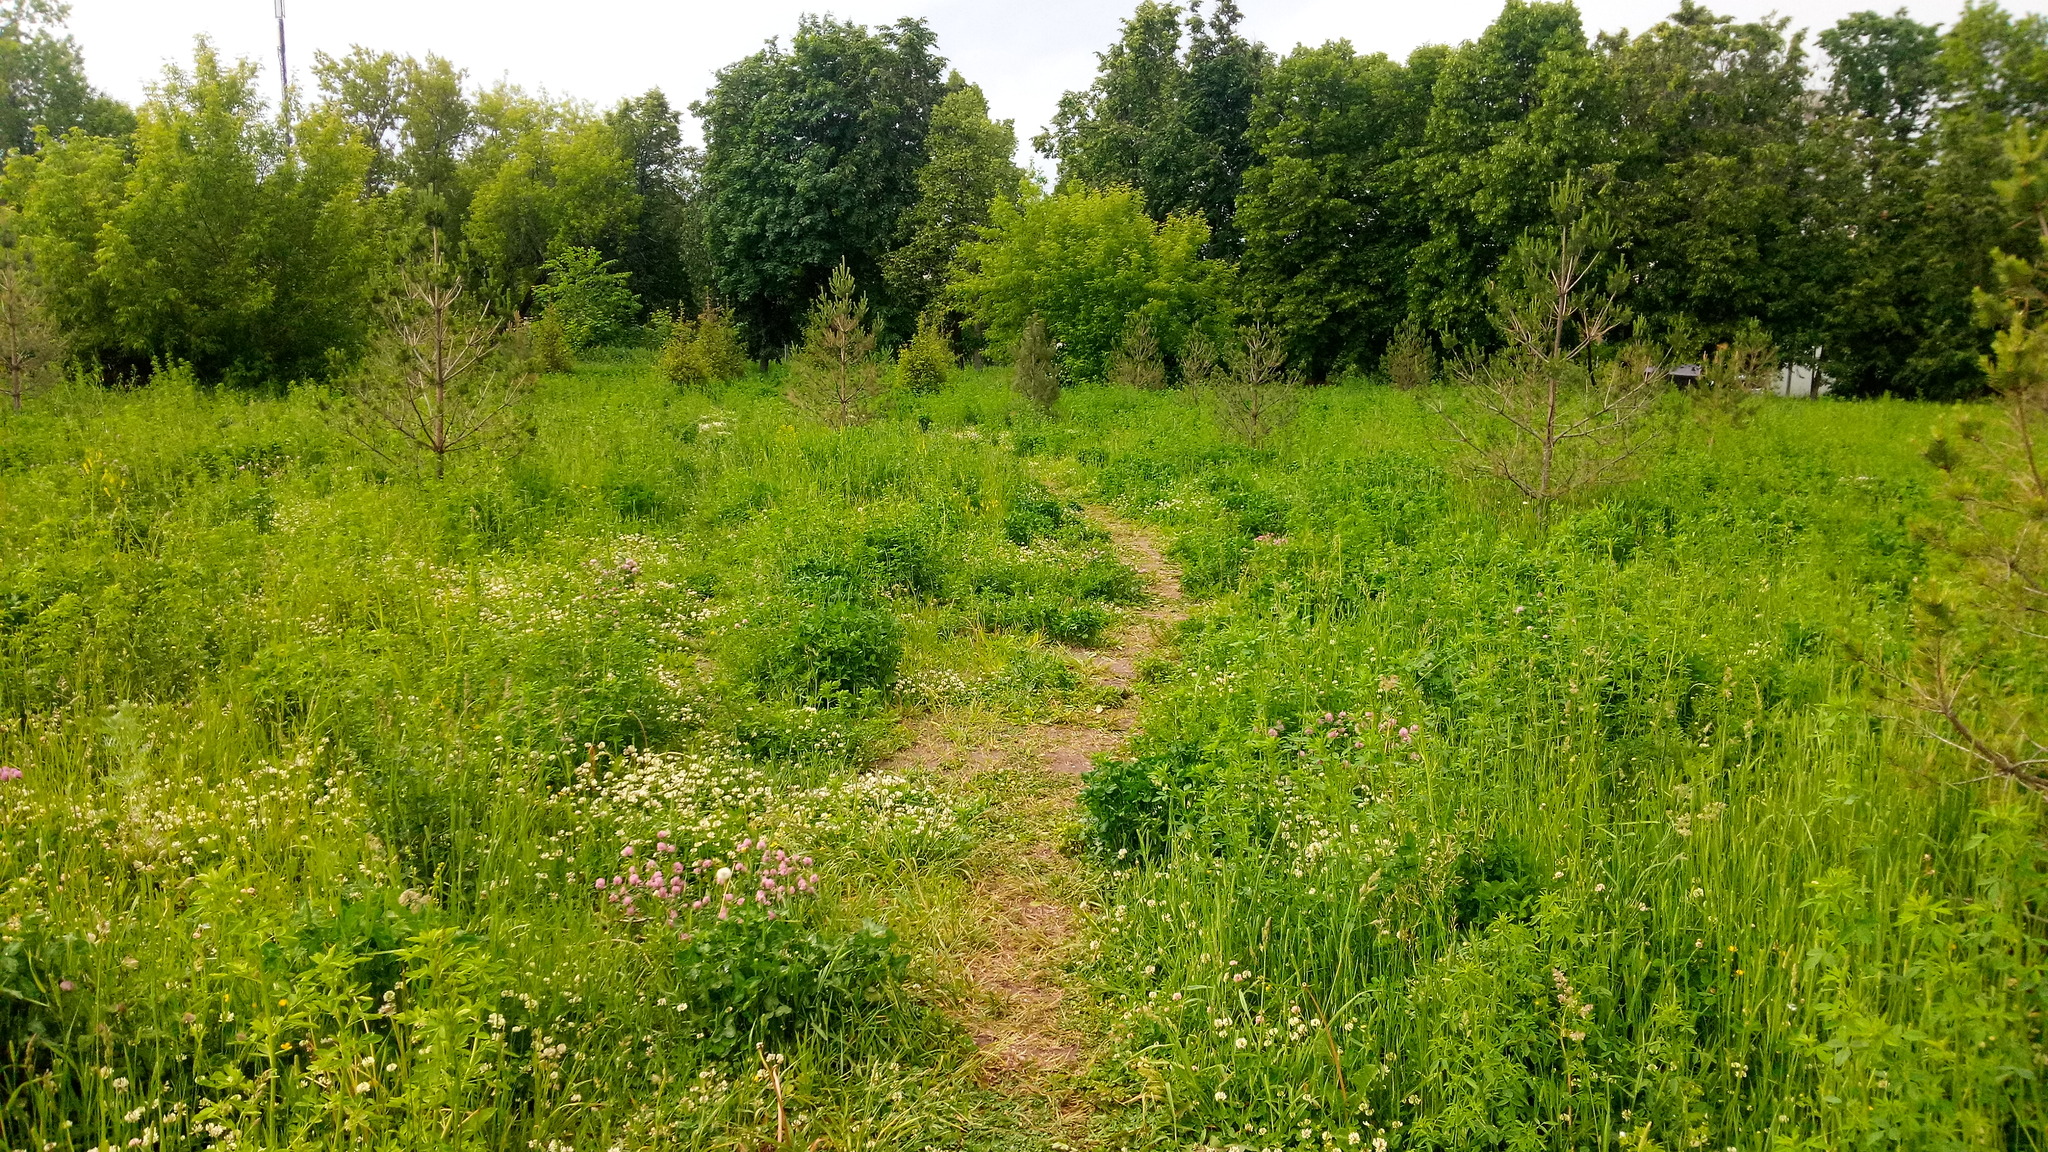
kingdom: Plantae
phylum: Tracheophyta
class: Magnoliopsida
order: Fabales
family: Fabaceae
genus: Trifolium
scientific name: Trifolium repens
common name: White clover
